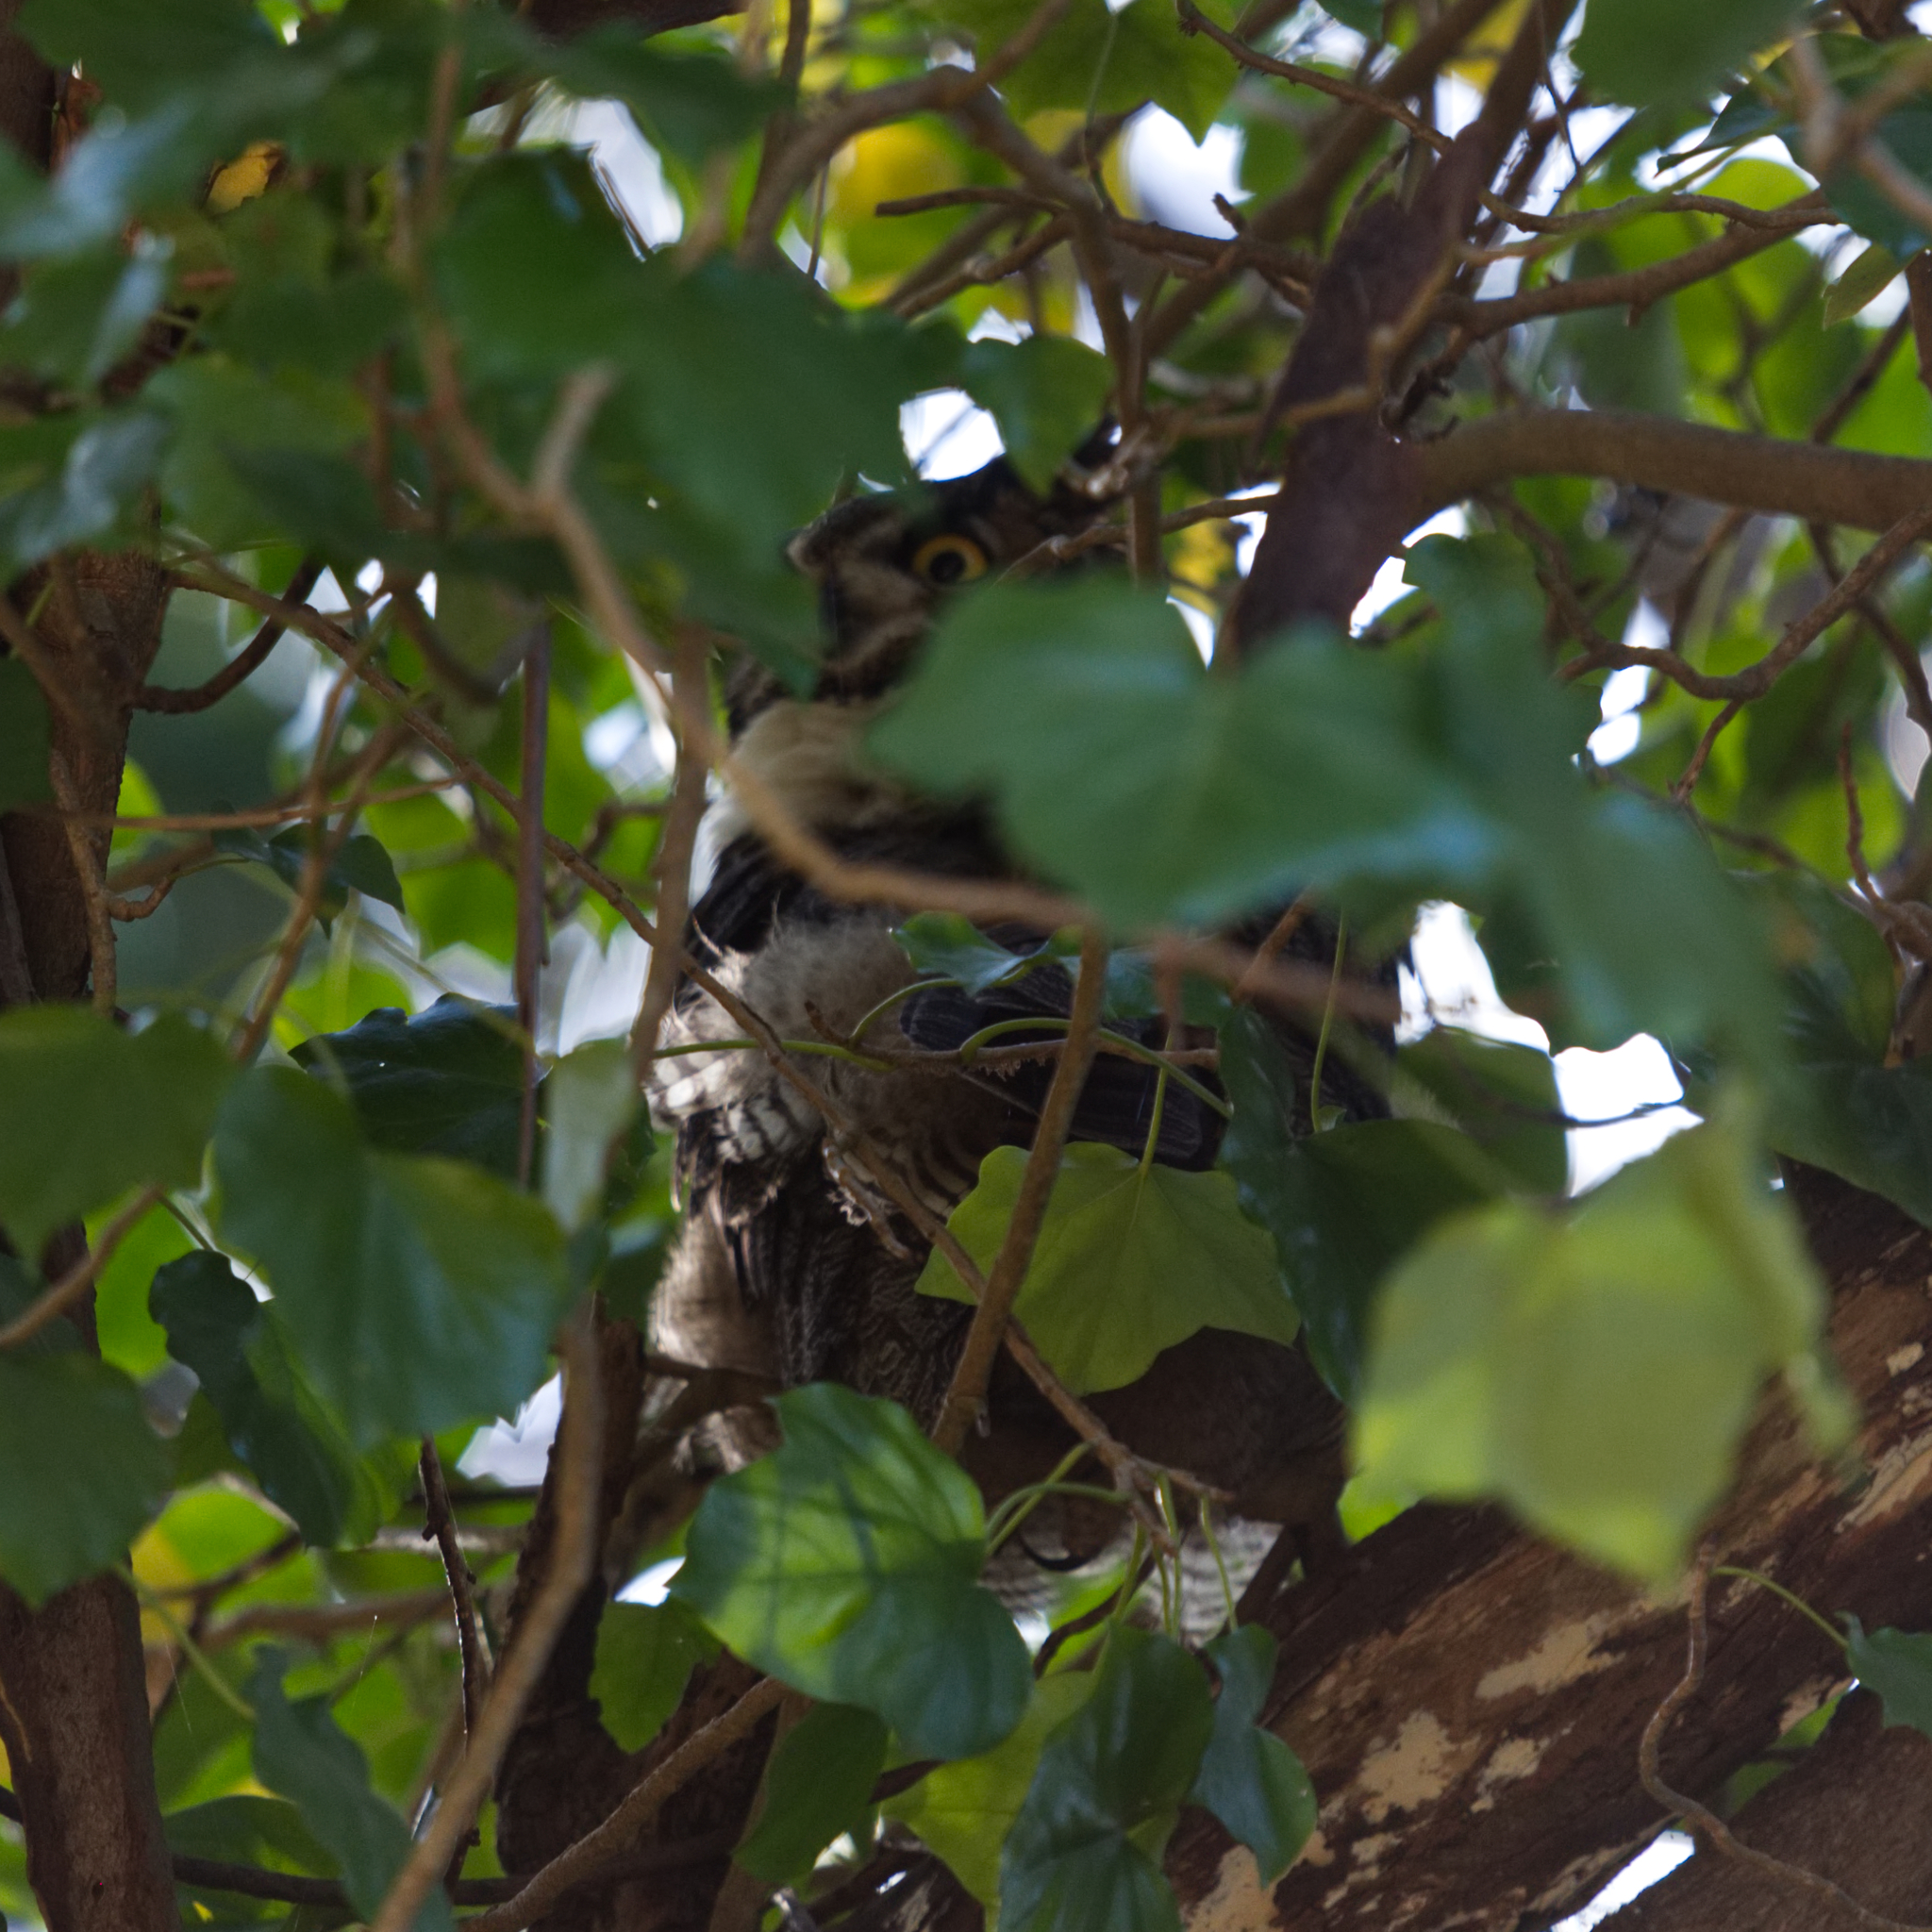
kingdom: Animalia
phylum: Chordata
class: Aves
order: Strigiformes
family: Strigidae
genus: Bubo
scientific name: Bubo virginianus
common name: Great horned owl
